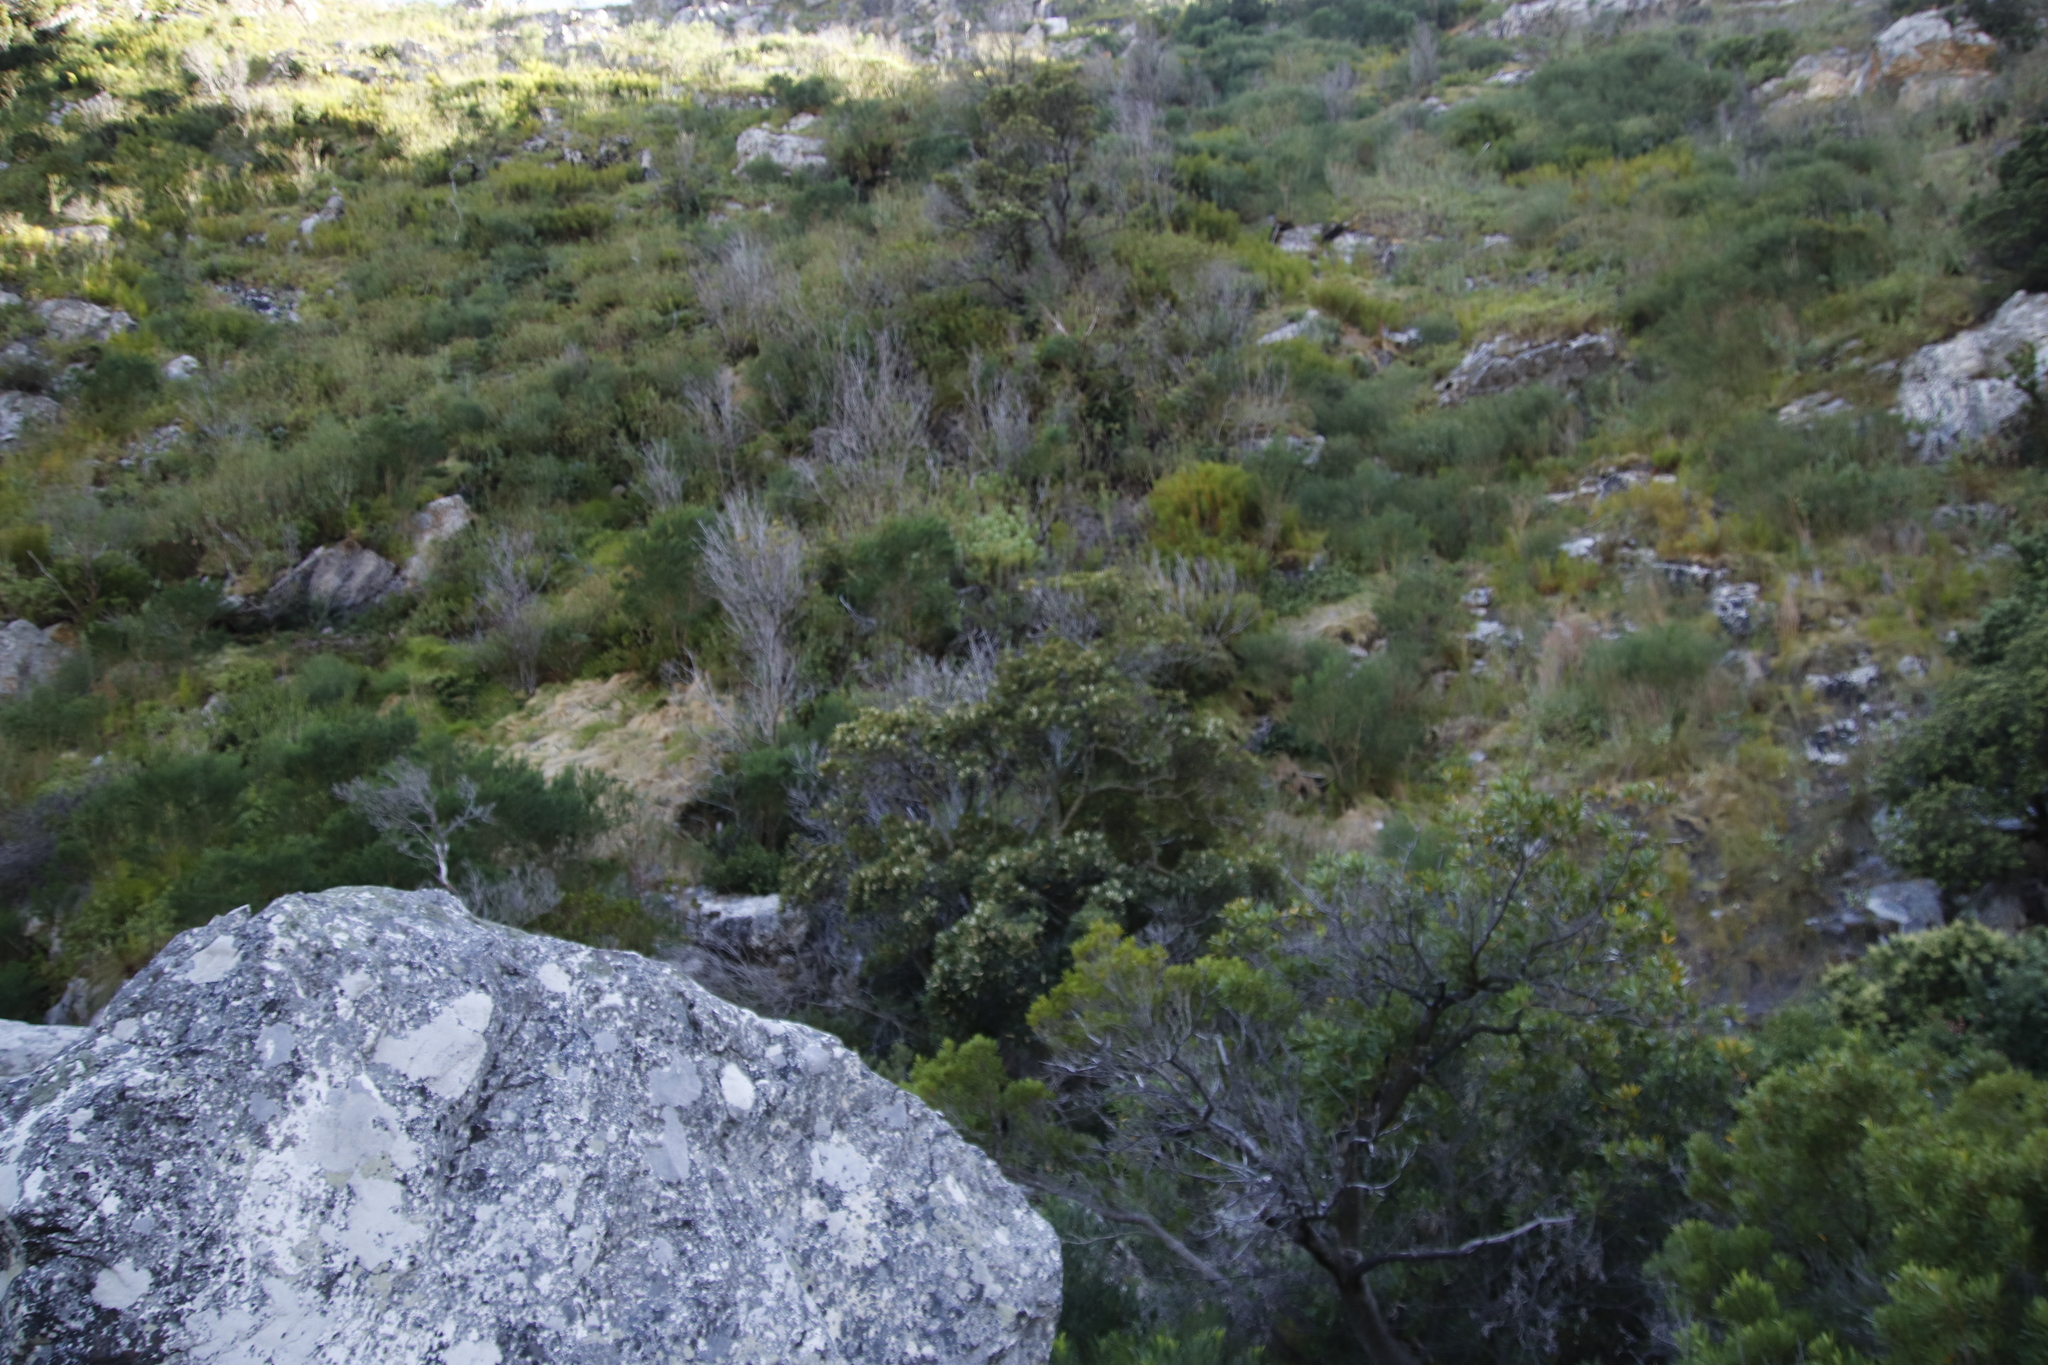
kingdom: Plantae
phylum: Tracheophyta
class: Magnoliopsida
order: Oxalidales
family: Cunoniaceae
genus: Cunonia
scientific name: Cunonia capensis
